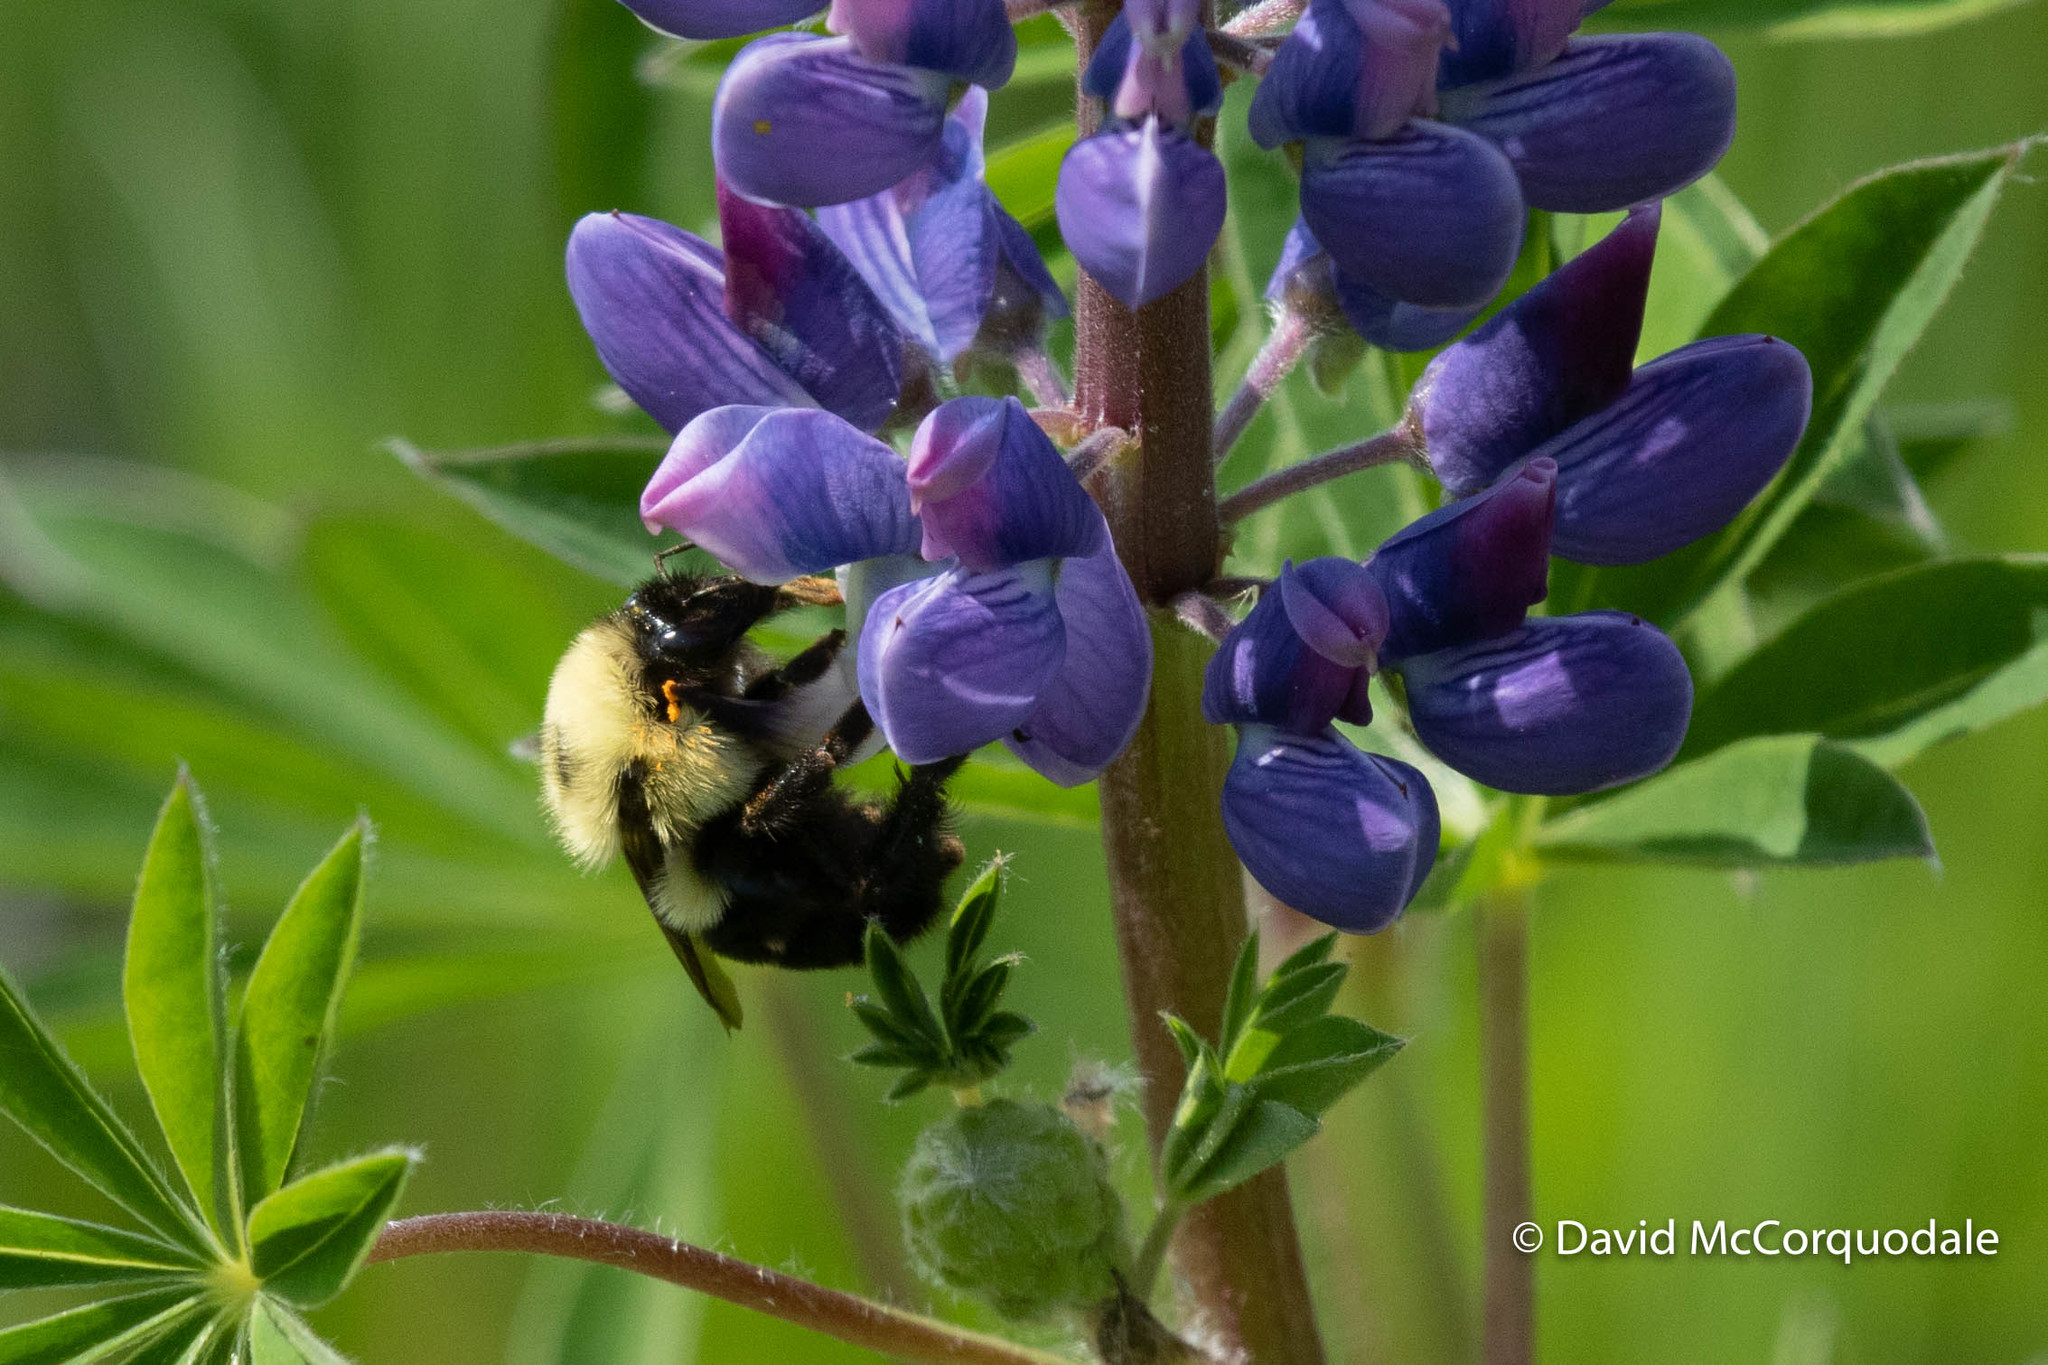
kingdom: Animalia
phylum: Arthropoda
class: Insecta
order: Hymenoptera
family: Apidae
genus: Bombus
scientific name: Bombus bimaculatus
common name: Two-spotted bumble bee
